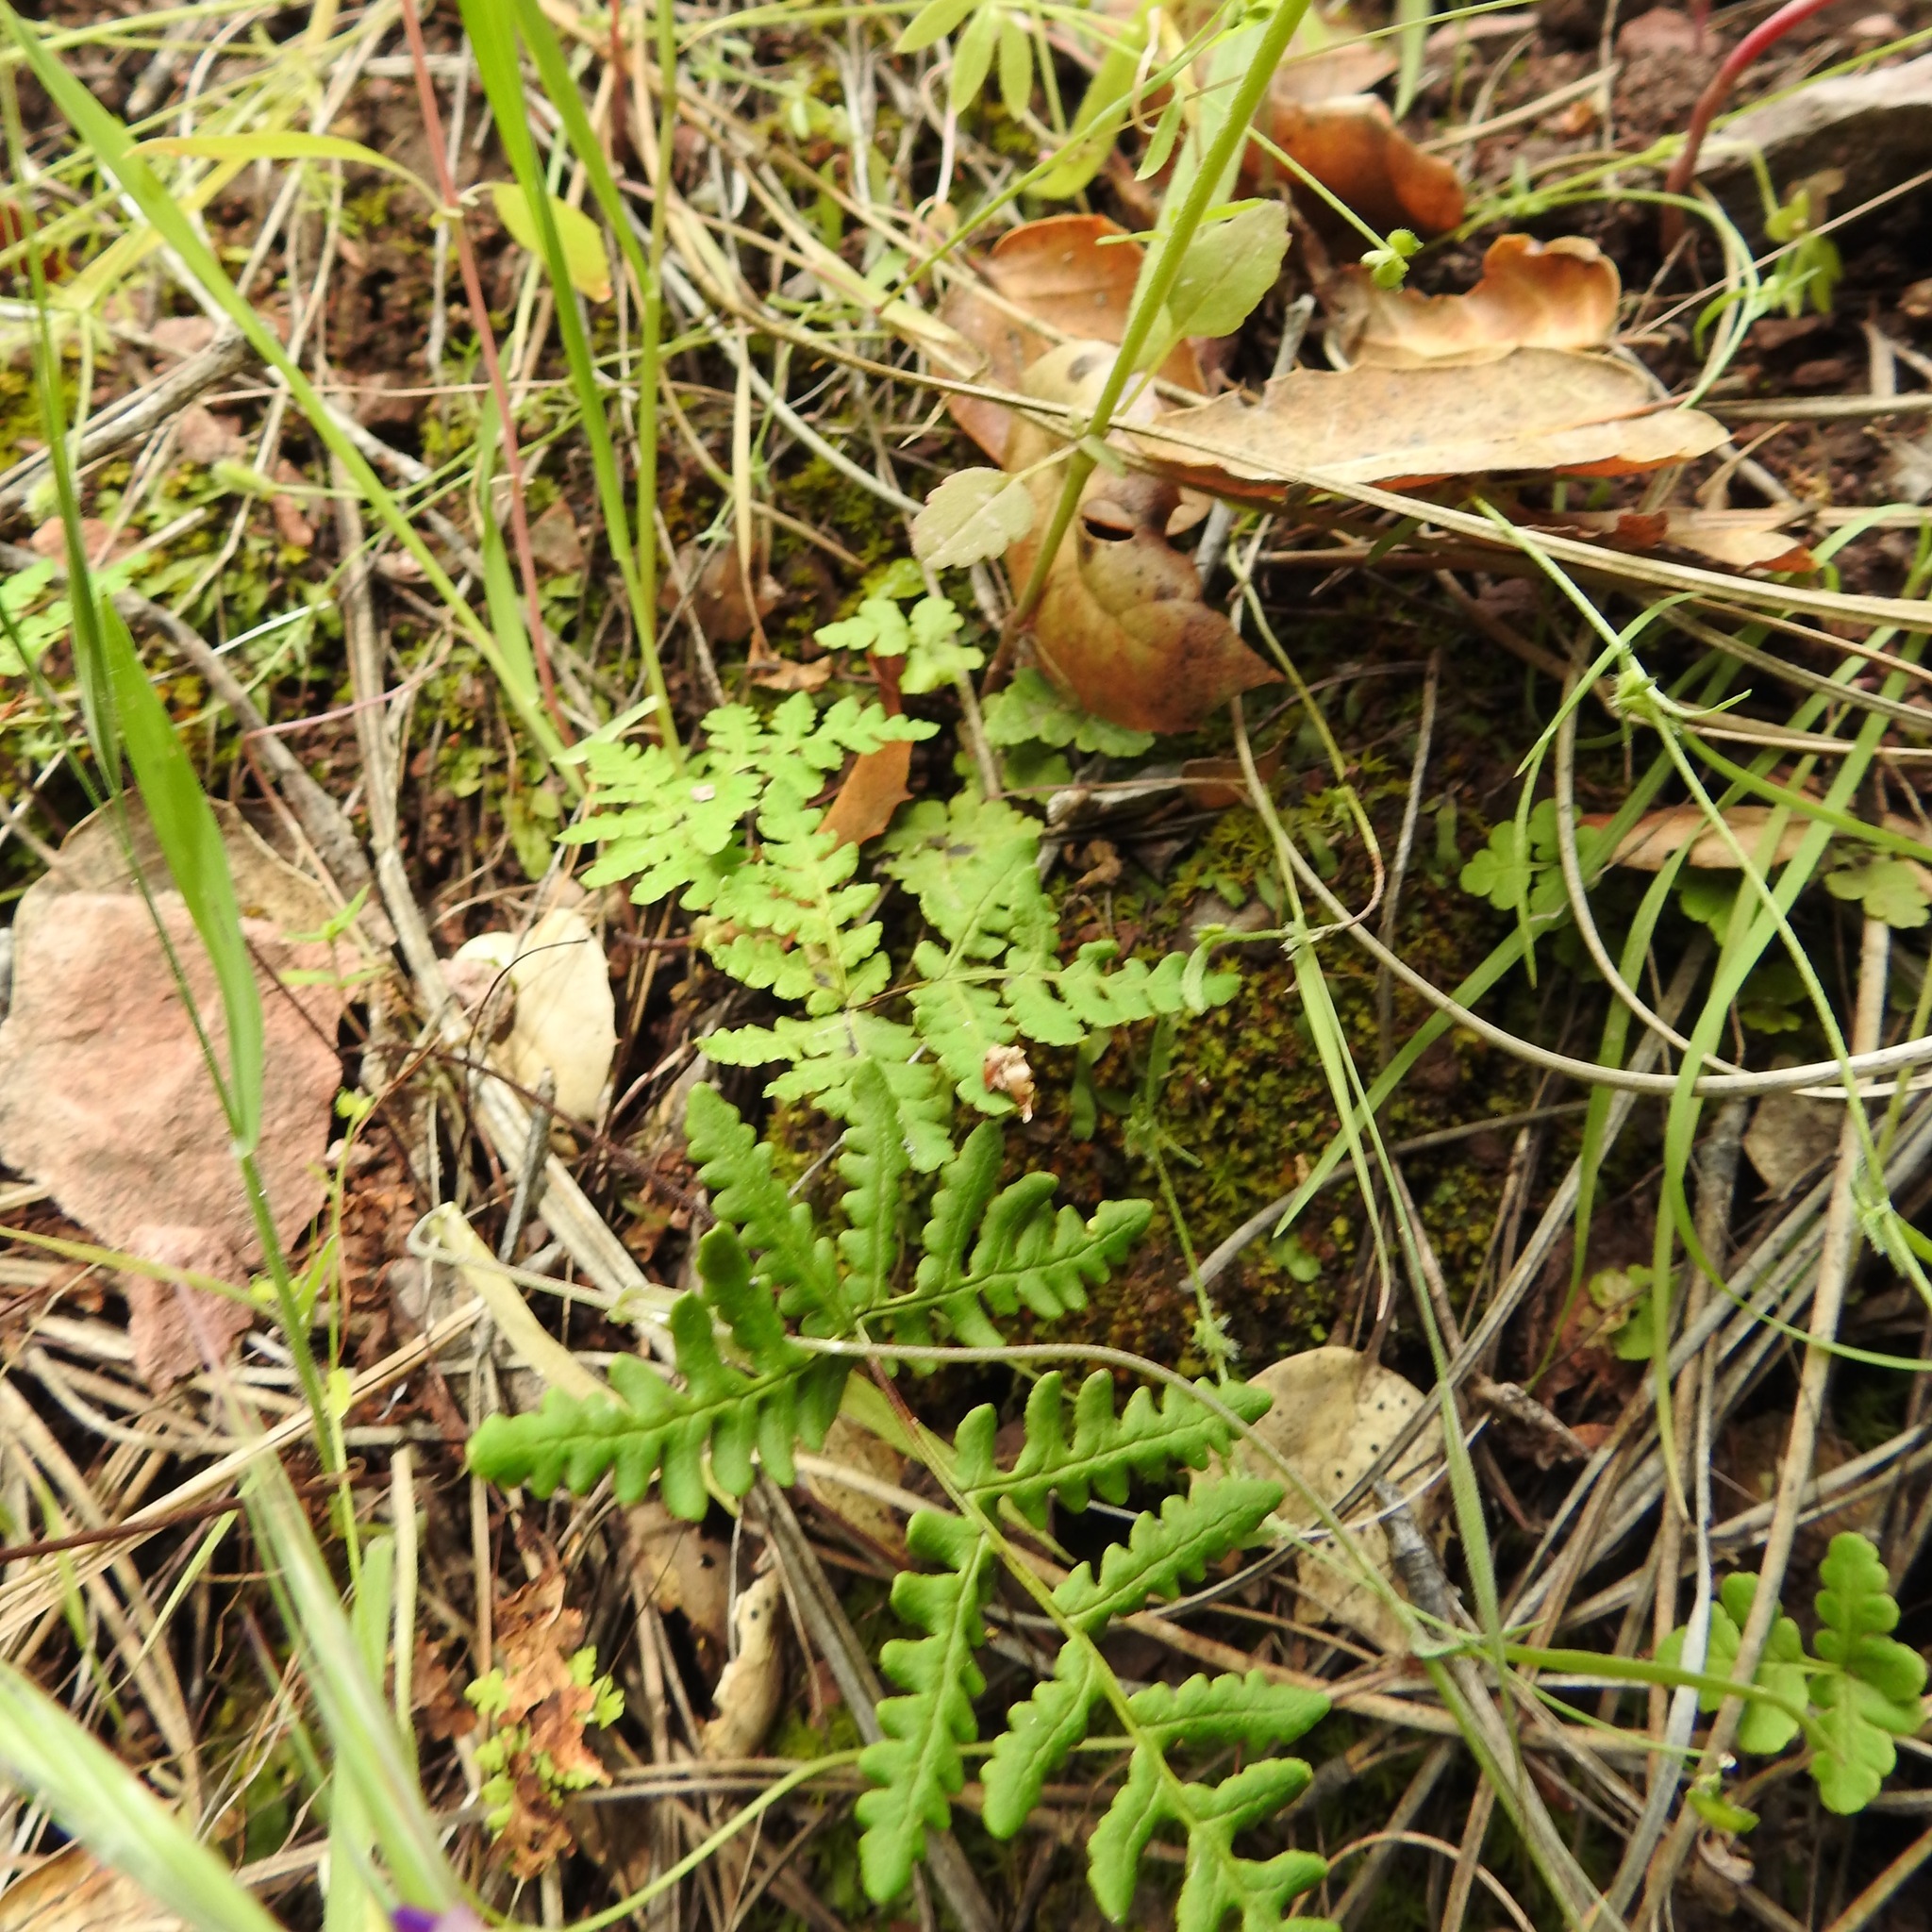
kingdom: Plantae
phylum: Tracheophyta
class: Polypodiopsida
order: Polypodiales
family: Pteridaceae
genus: Pentagramma
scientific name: Pentagramma triangularis
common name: Gold fern
